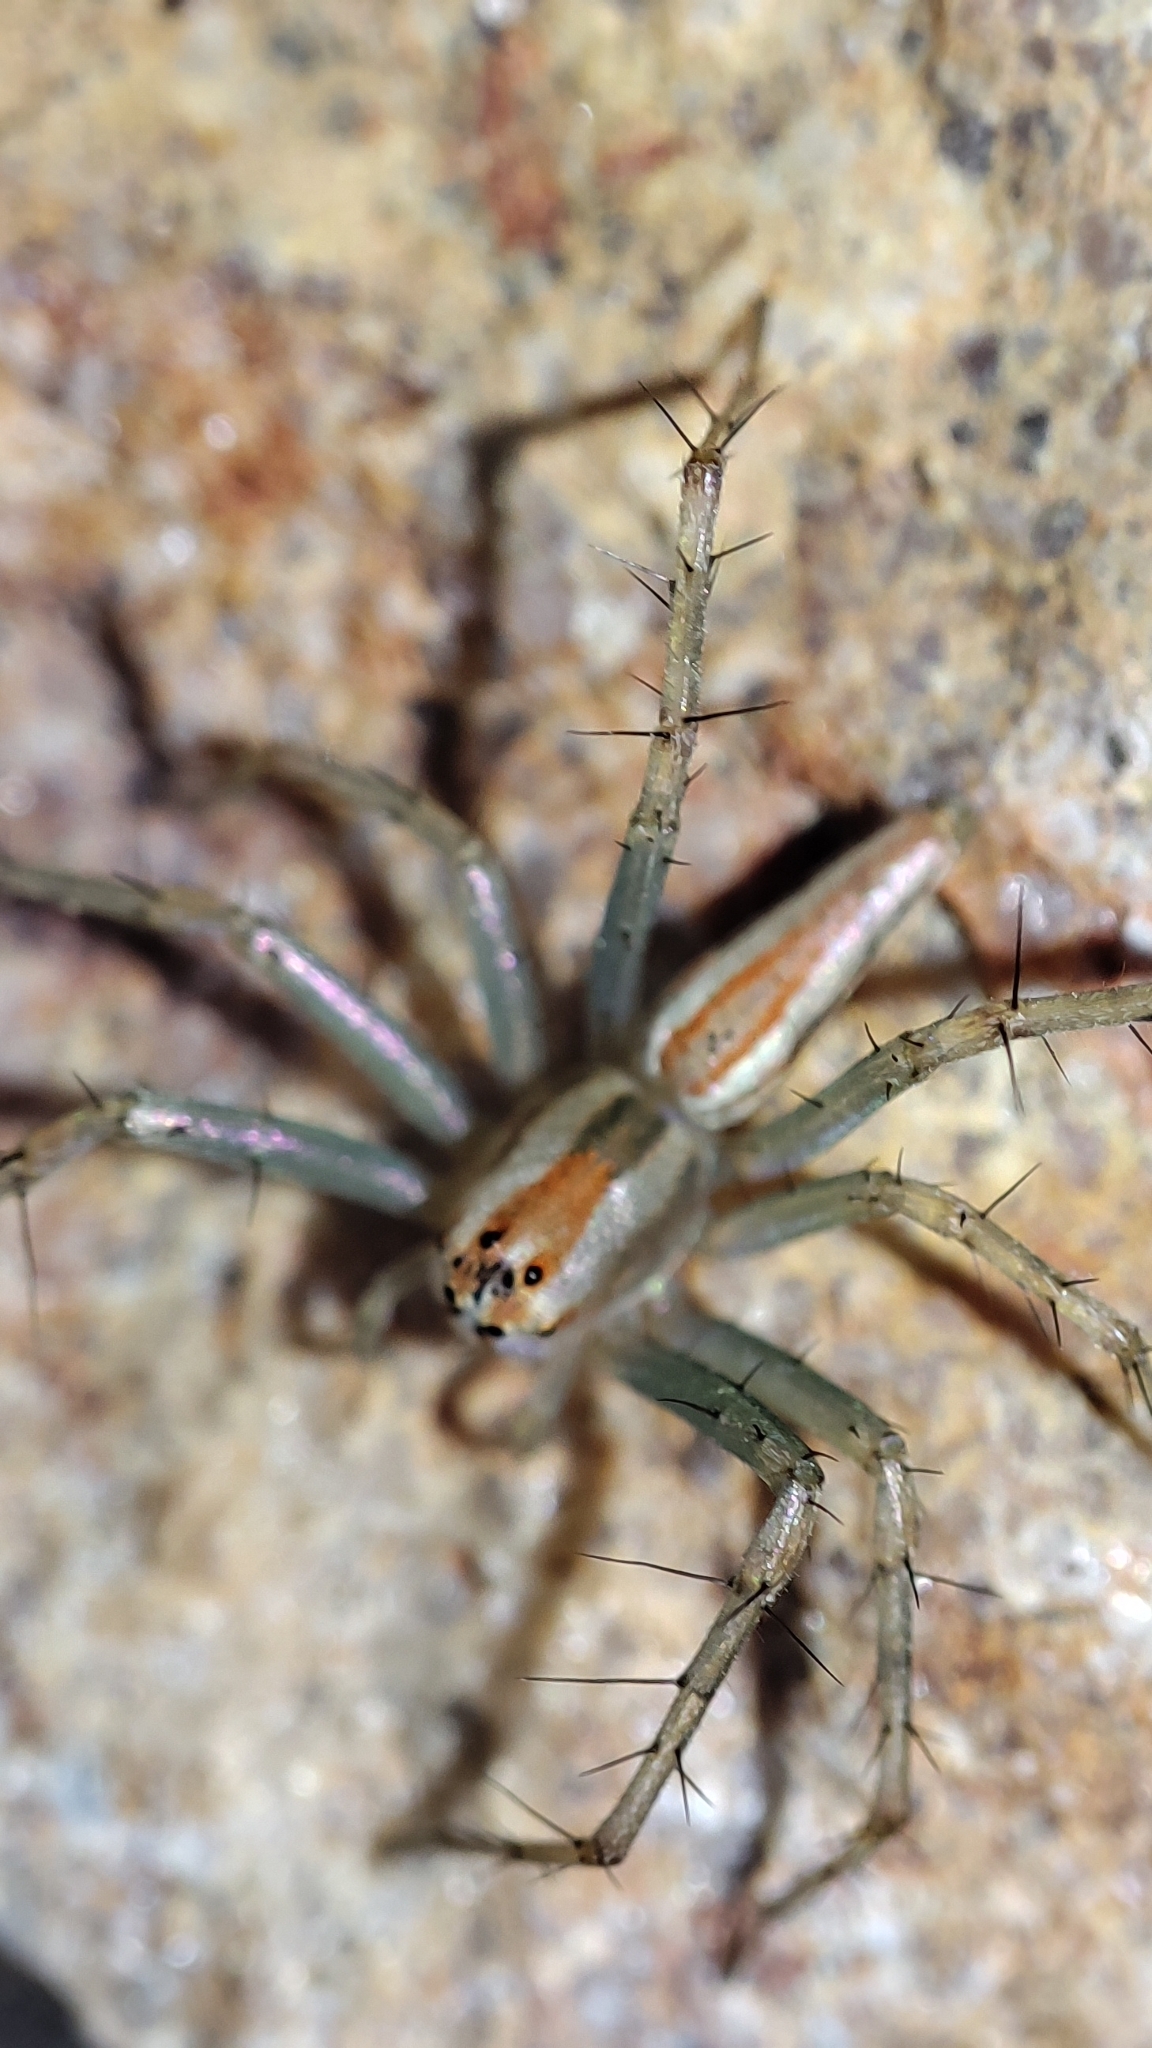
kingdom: Animalia
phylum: Arthropoda
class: Arachnida
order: Araneae
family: Oxyopidae
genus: Oxyopes
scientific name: Oxyopes macilentus
